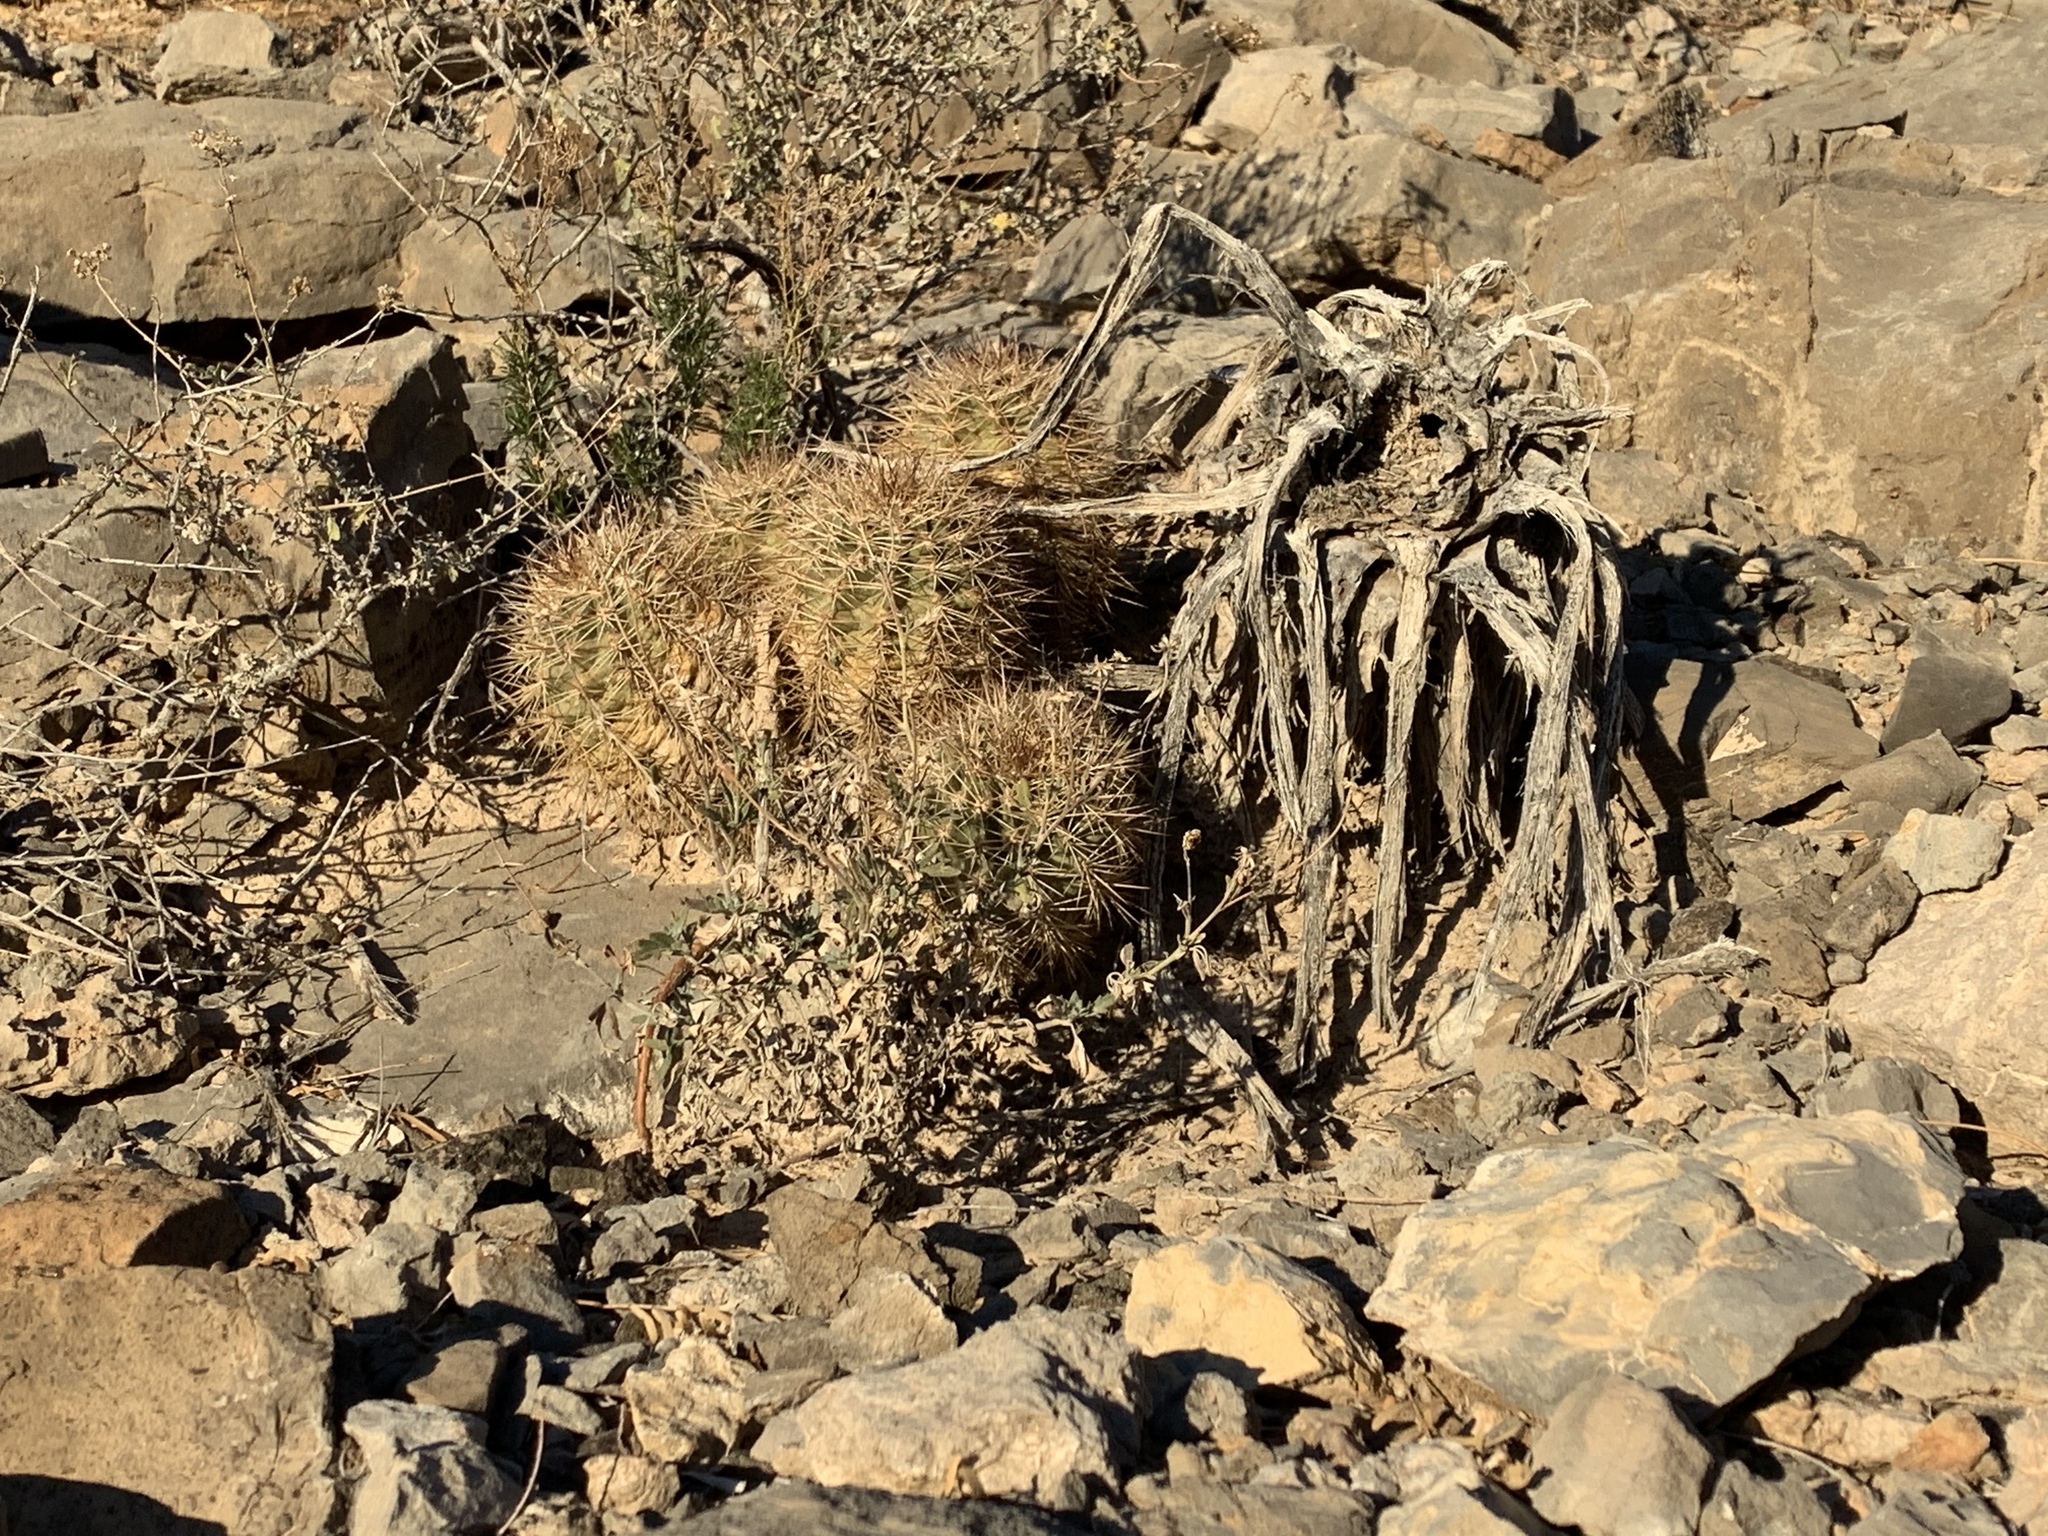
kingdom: Plantae
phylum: Tracheophyta
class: Magnoliopsida
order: Caryophyllales
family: Cactaceae
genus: Echinocereus
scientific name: Echinocereus coccineus
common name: Scarlet hedgehog cactus
